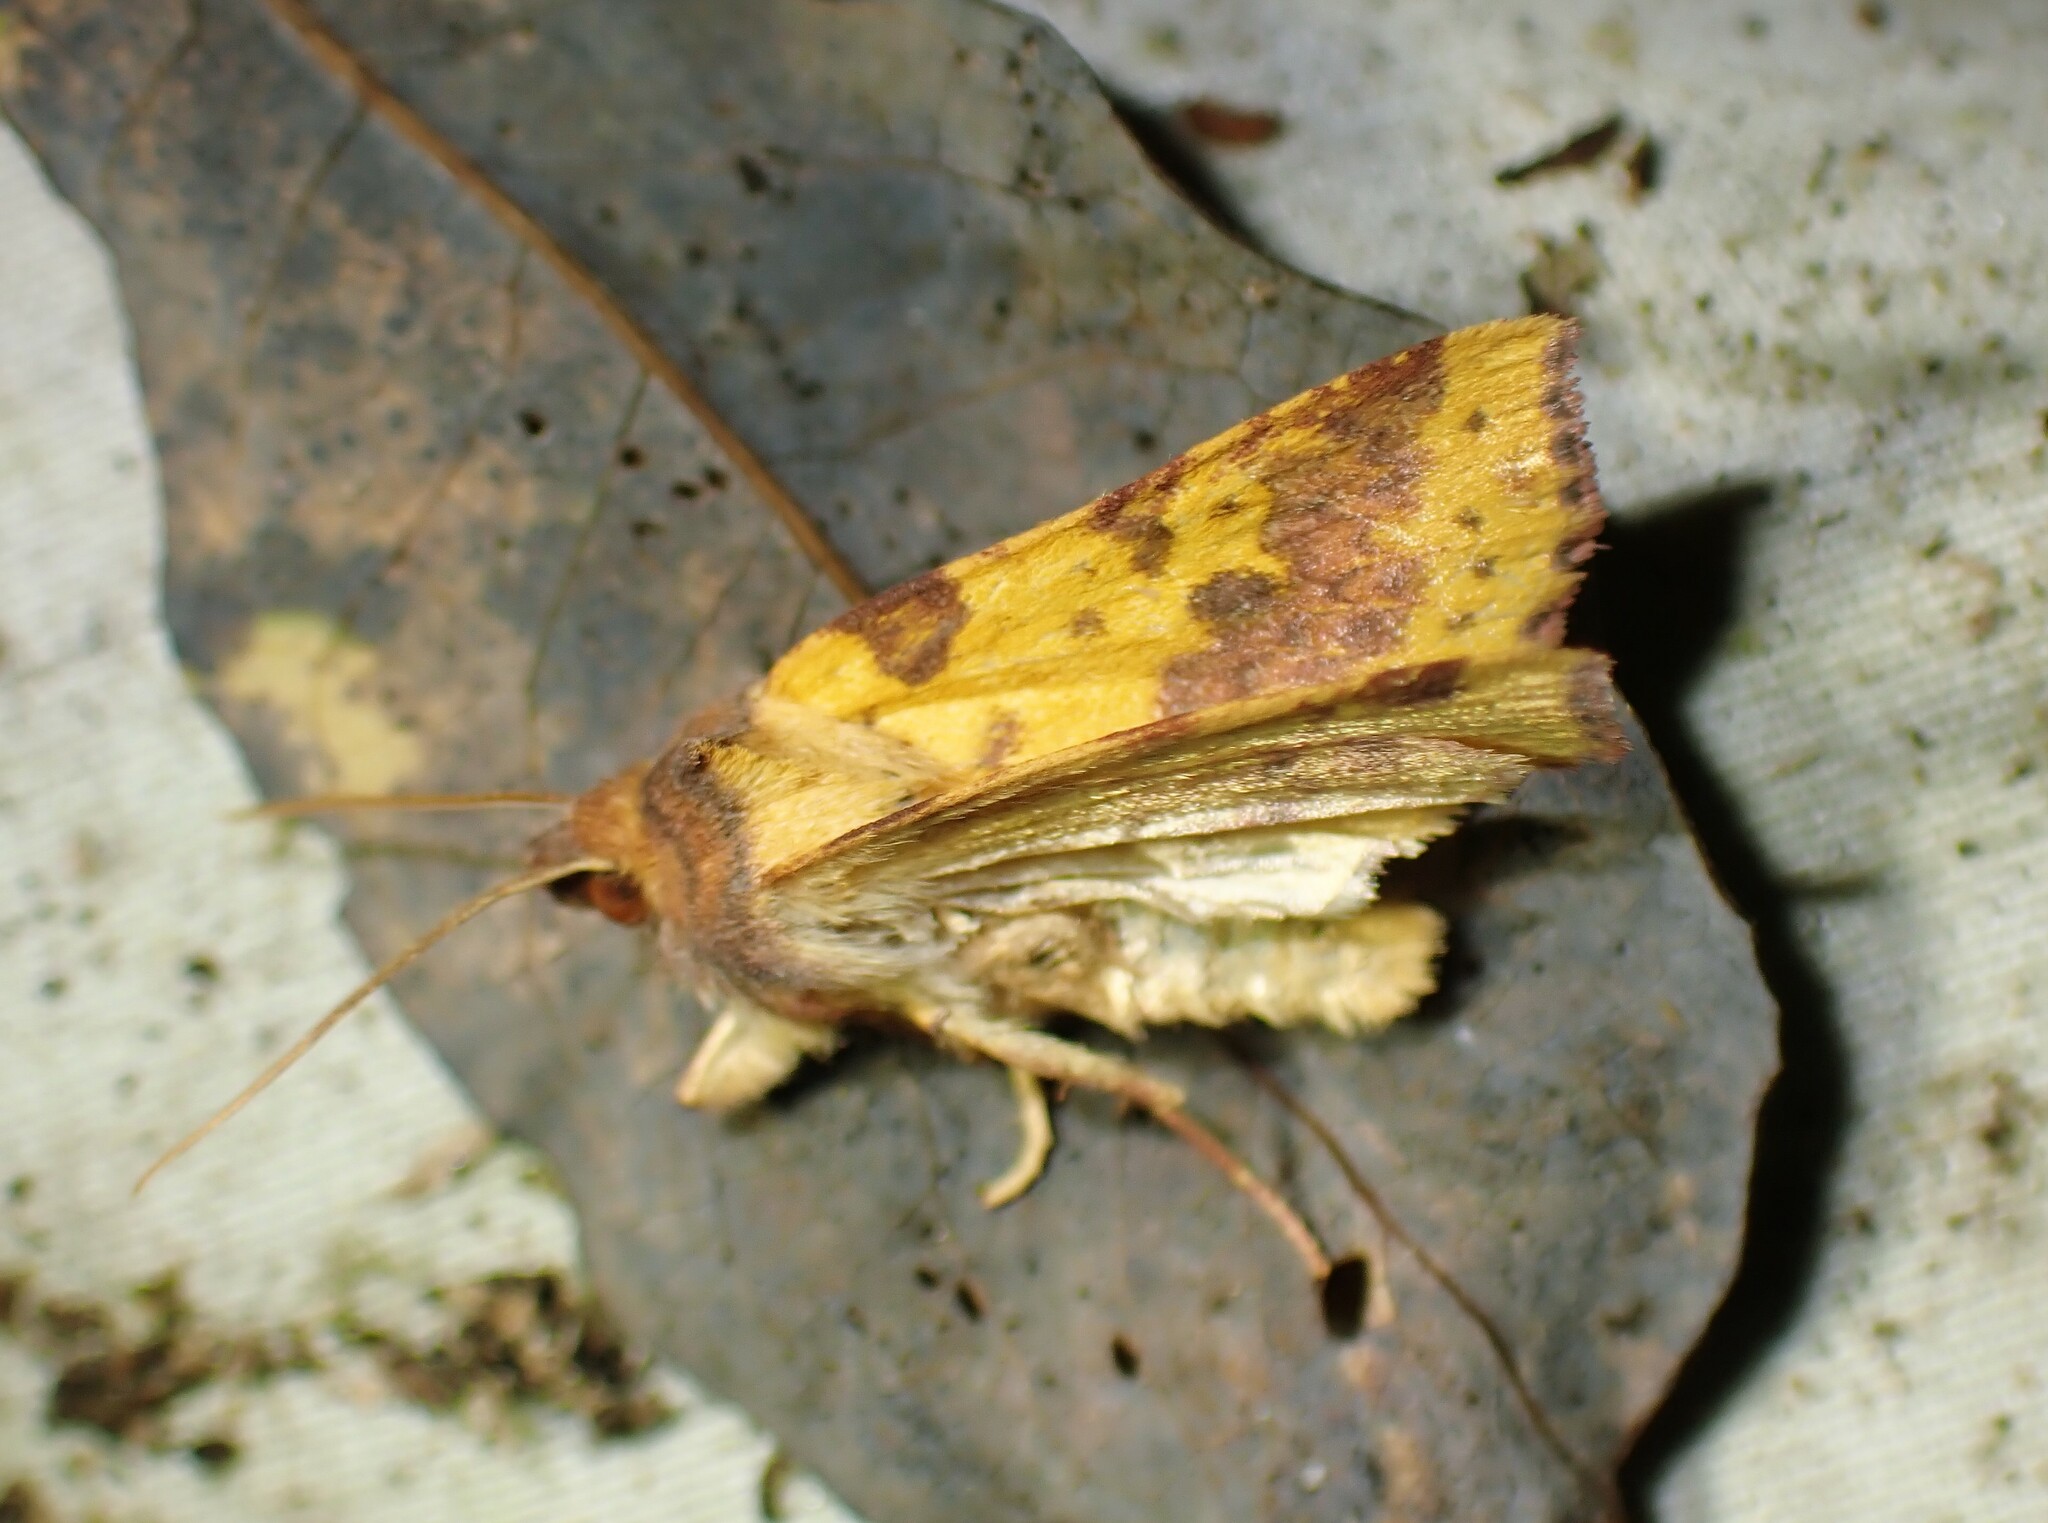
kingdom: Animalia
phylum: Arthropoda
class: Insecta
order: Lepidoptera
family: Noctuidae
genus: Xanthia
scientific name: Xanthia tatago
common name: Pink-banded sallow
